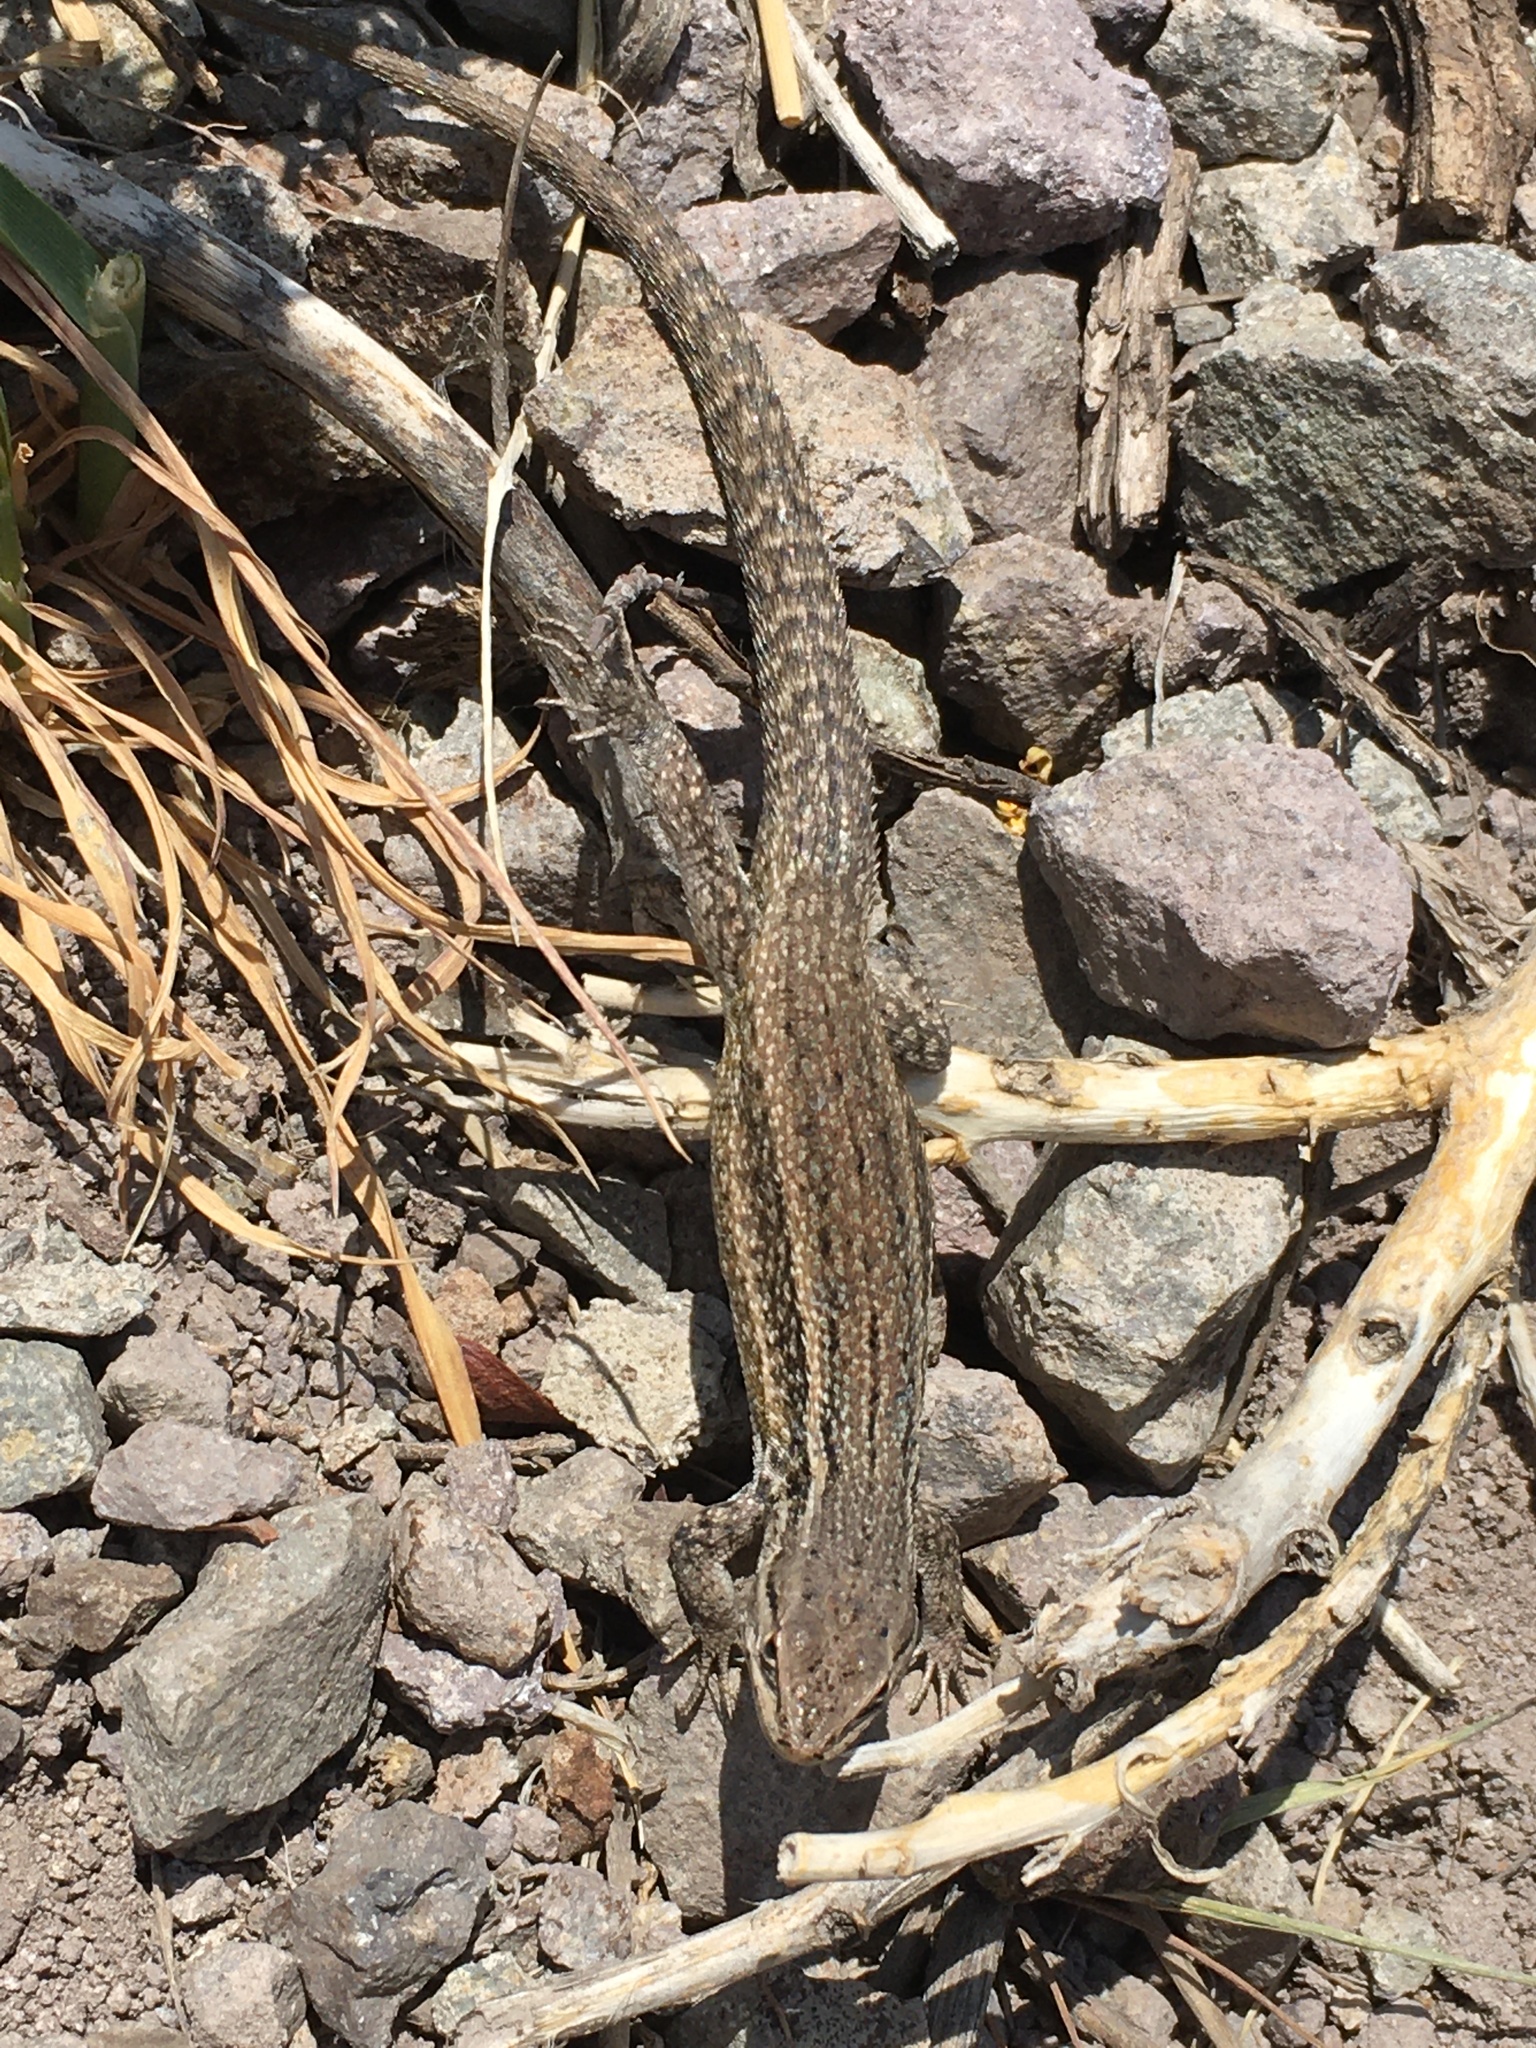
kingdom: Animalia
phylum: Chordata
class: Squamata
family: Liolaemidae
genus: Liolaemus
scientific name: Liolaemus fuscus
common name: Brown tree iguana
